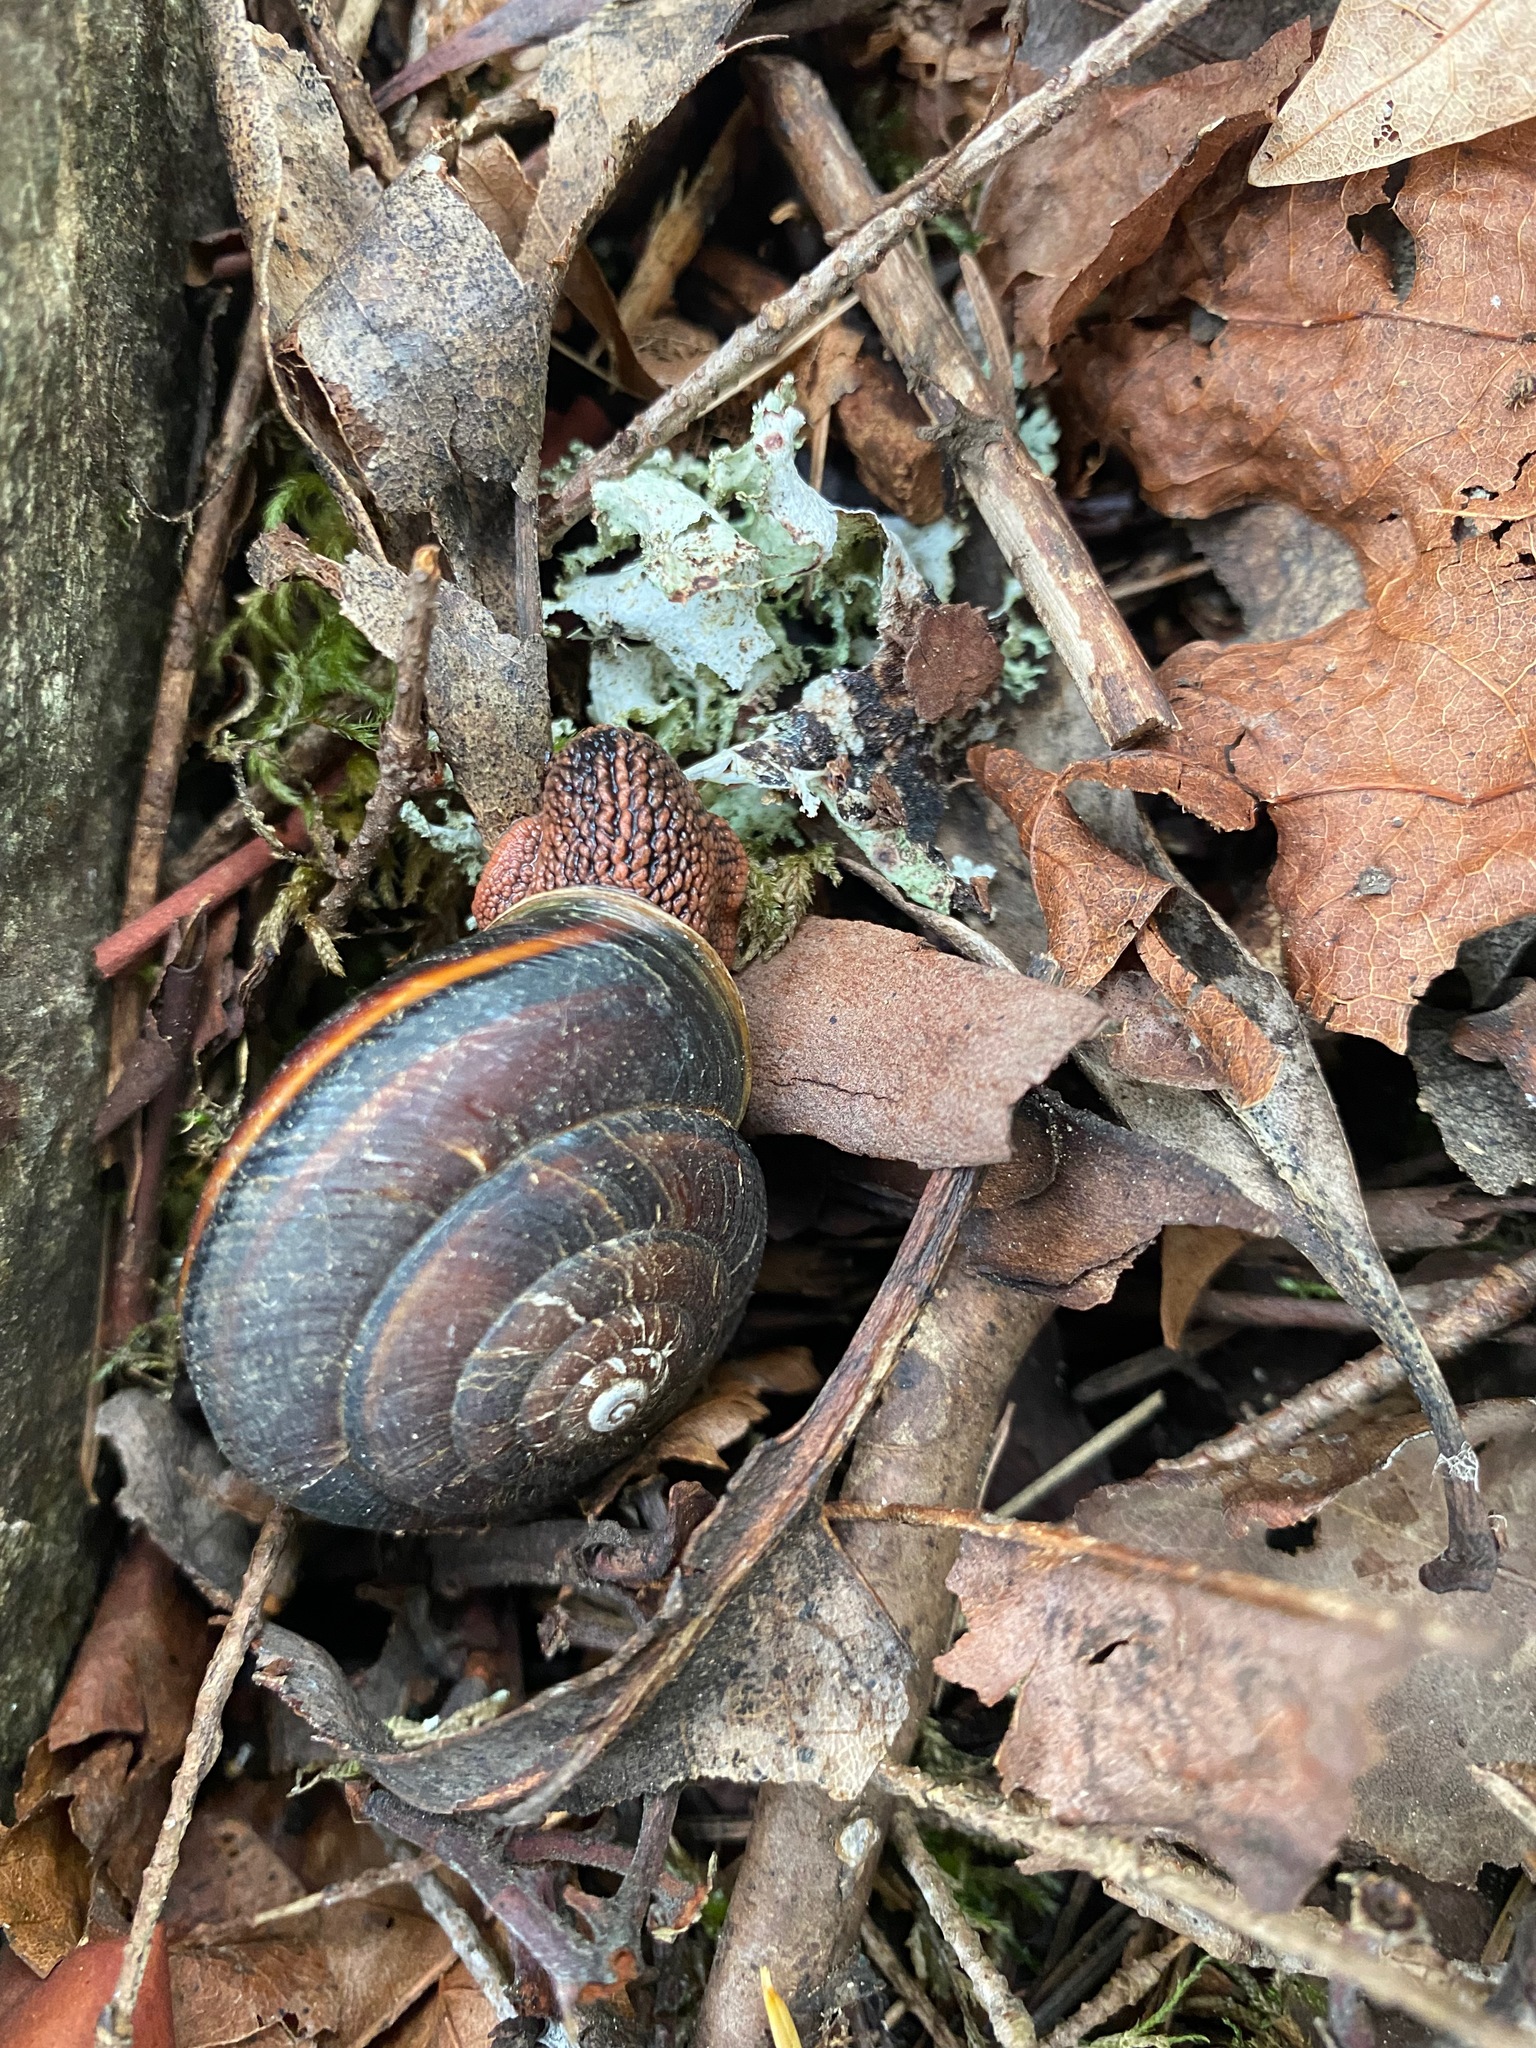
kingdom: Animalia
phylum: Mollusca
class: Gastropoda
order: Stylommatophora
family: Xanthonychidae
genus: Monadenia
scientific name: Monadenia fidelis
